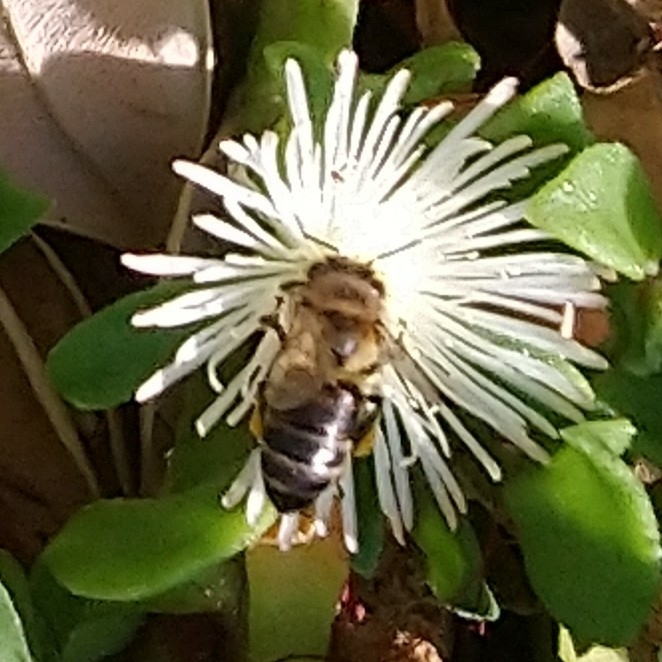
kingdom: Animalia
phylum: Arthropoda
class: Insecta
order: Hymenoptera
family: Apidae
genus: Apis
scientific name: Apis mellifera
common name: Honey bee
